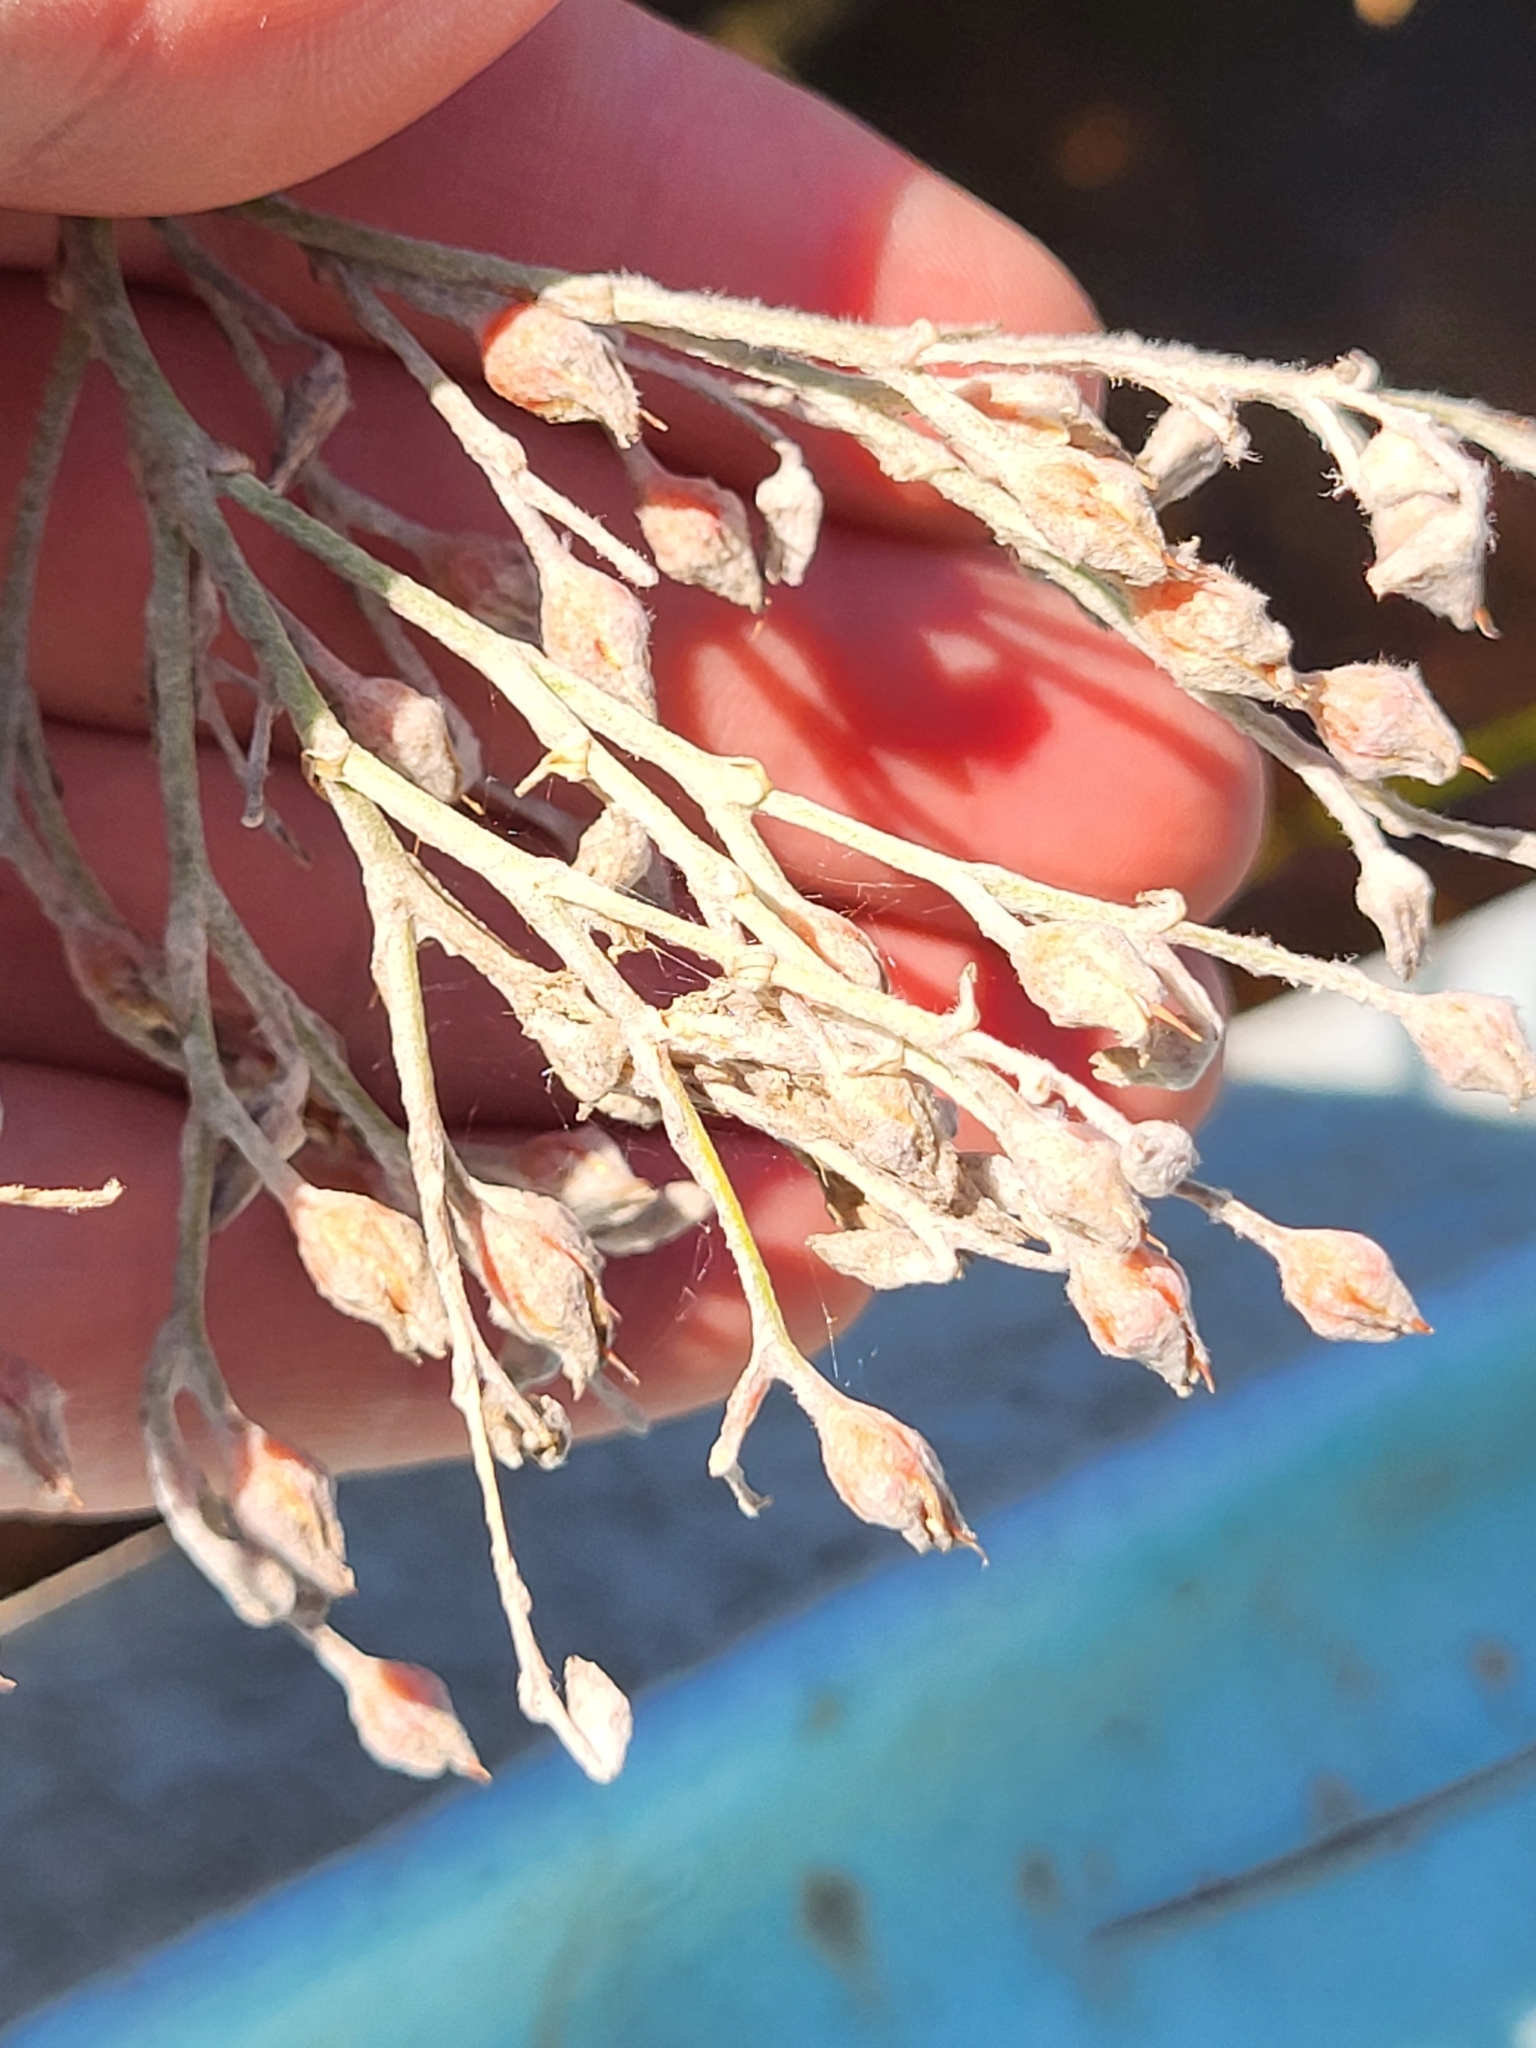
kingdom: Plantae
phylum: Tracheophyta
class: Liliopsida
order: Dioscoreales
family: Nartheciaceae
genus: Lophiola
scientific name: Lophiola aurea
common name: Golden-crest
